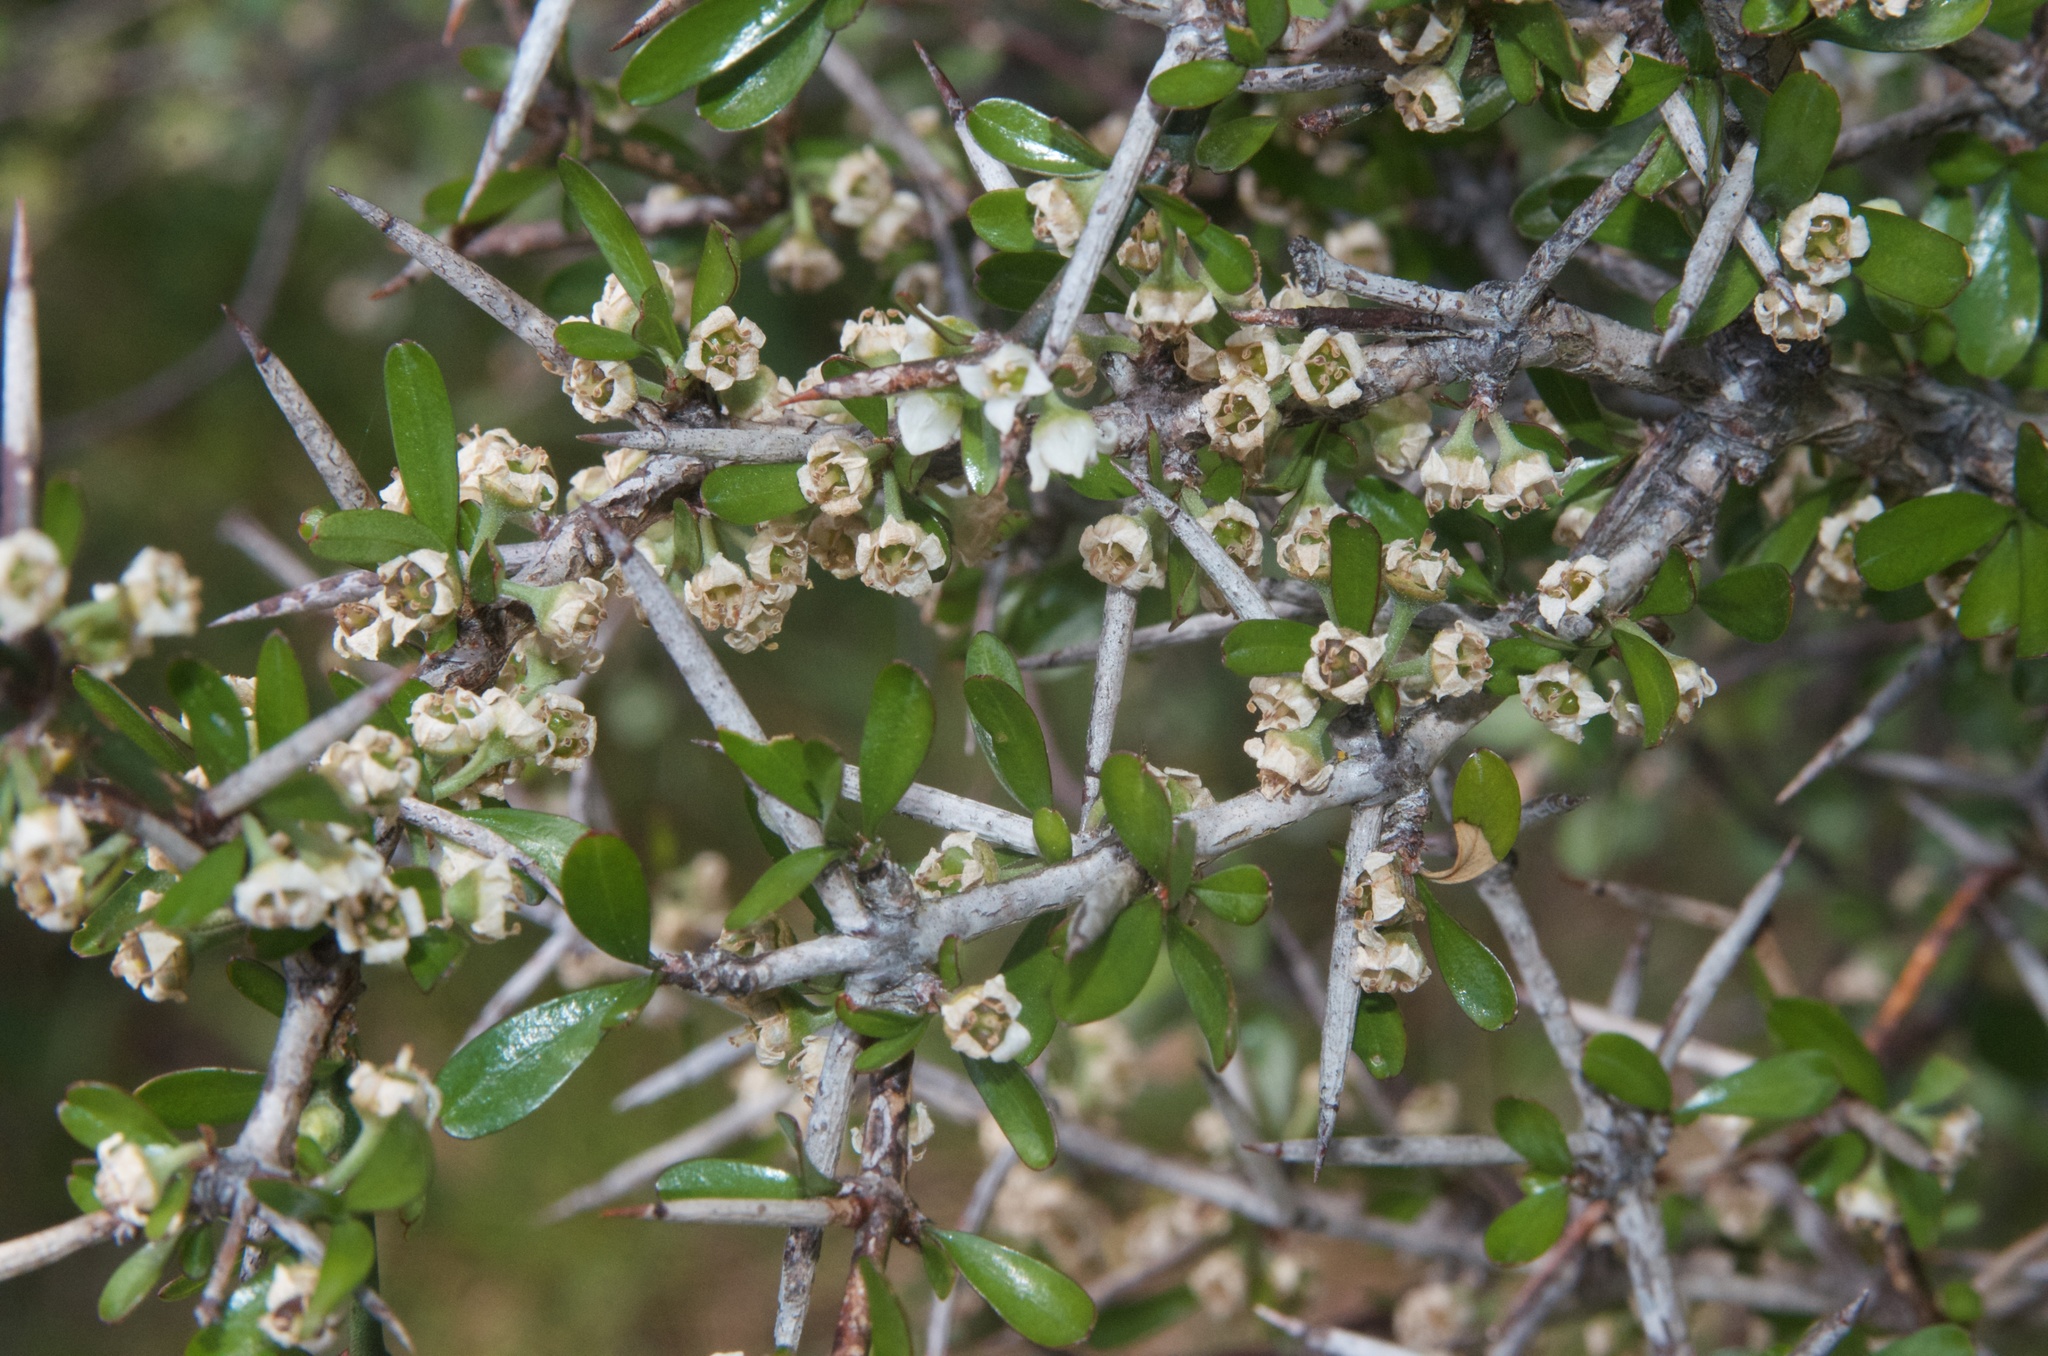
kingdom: Plantae
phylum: Tracheophyta
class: Magnoliopsida
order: Rosales
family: Rhamnaceae
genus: Discaria
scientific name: Discaria toumatou
